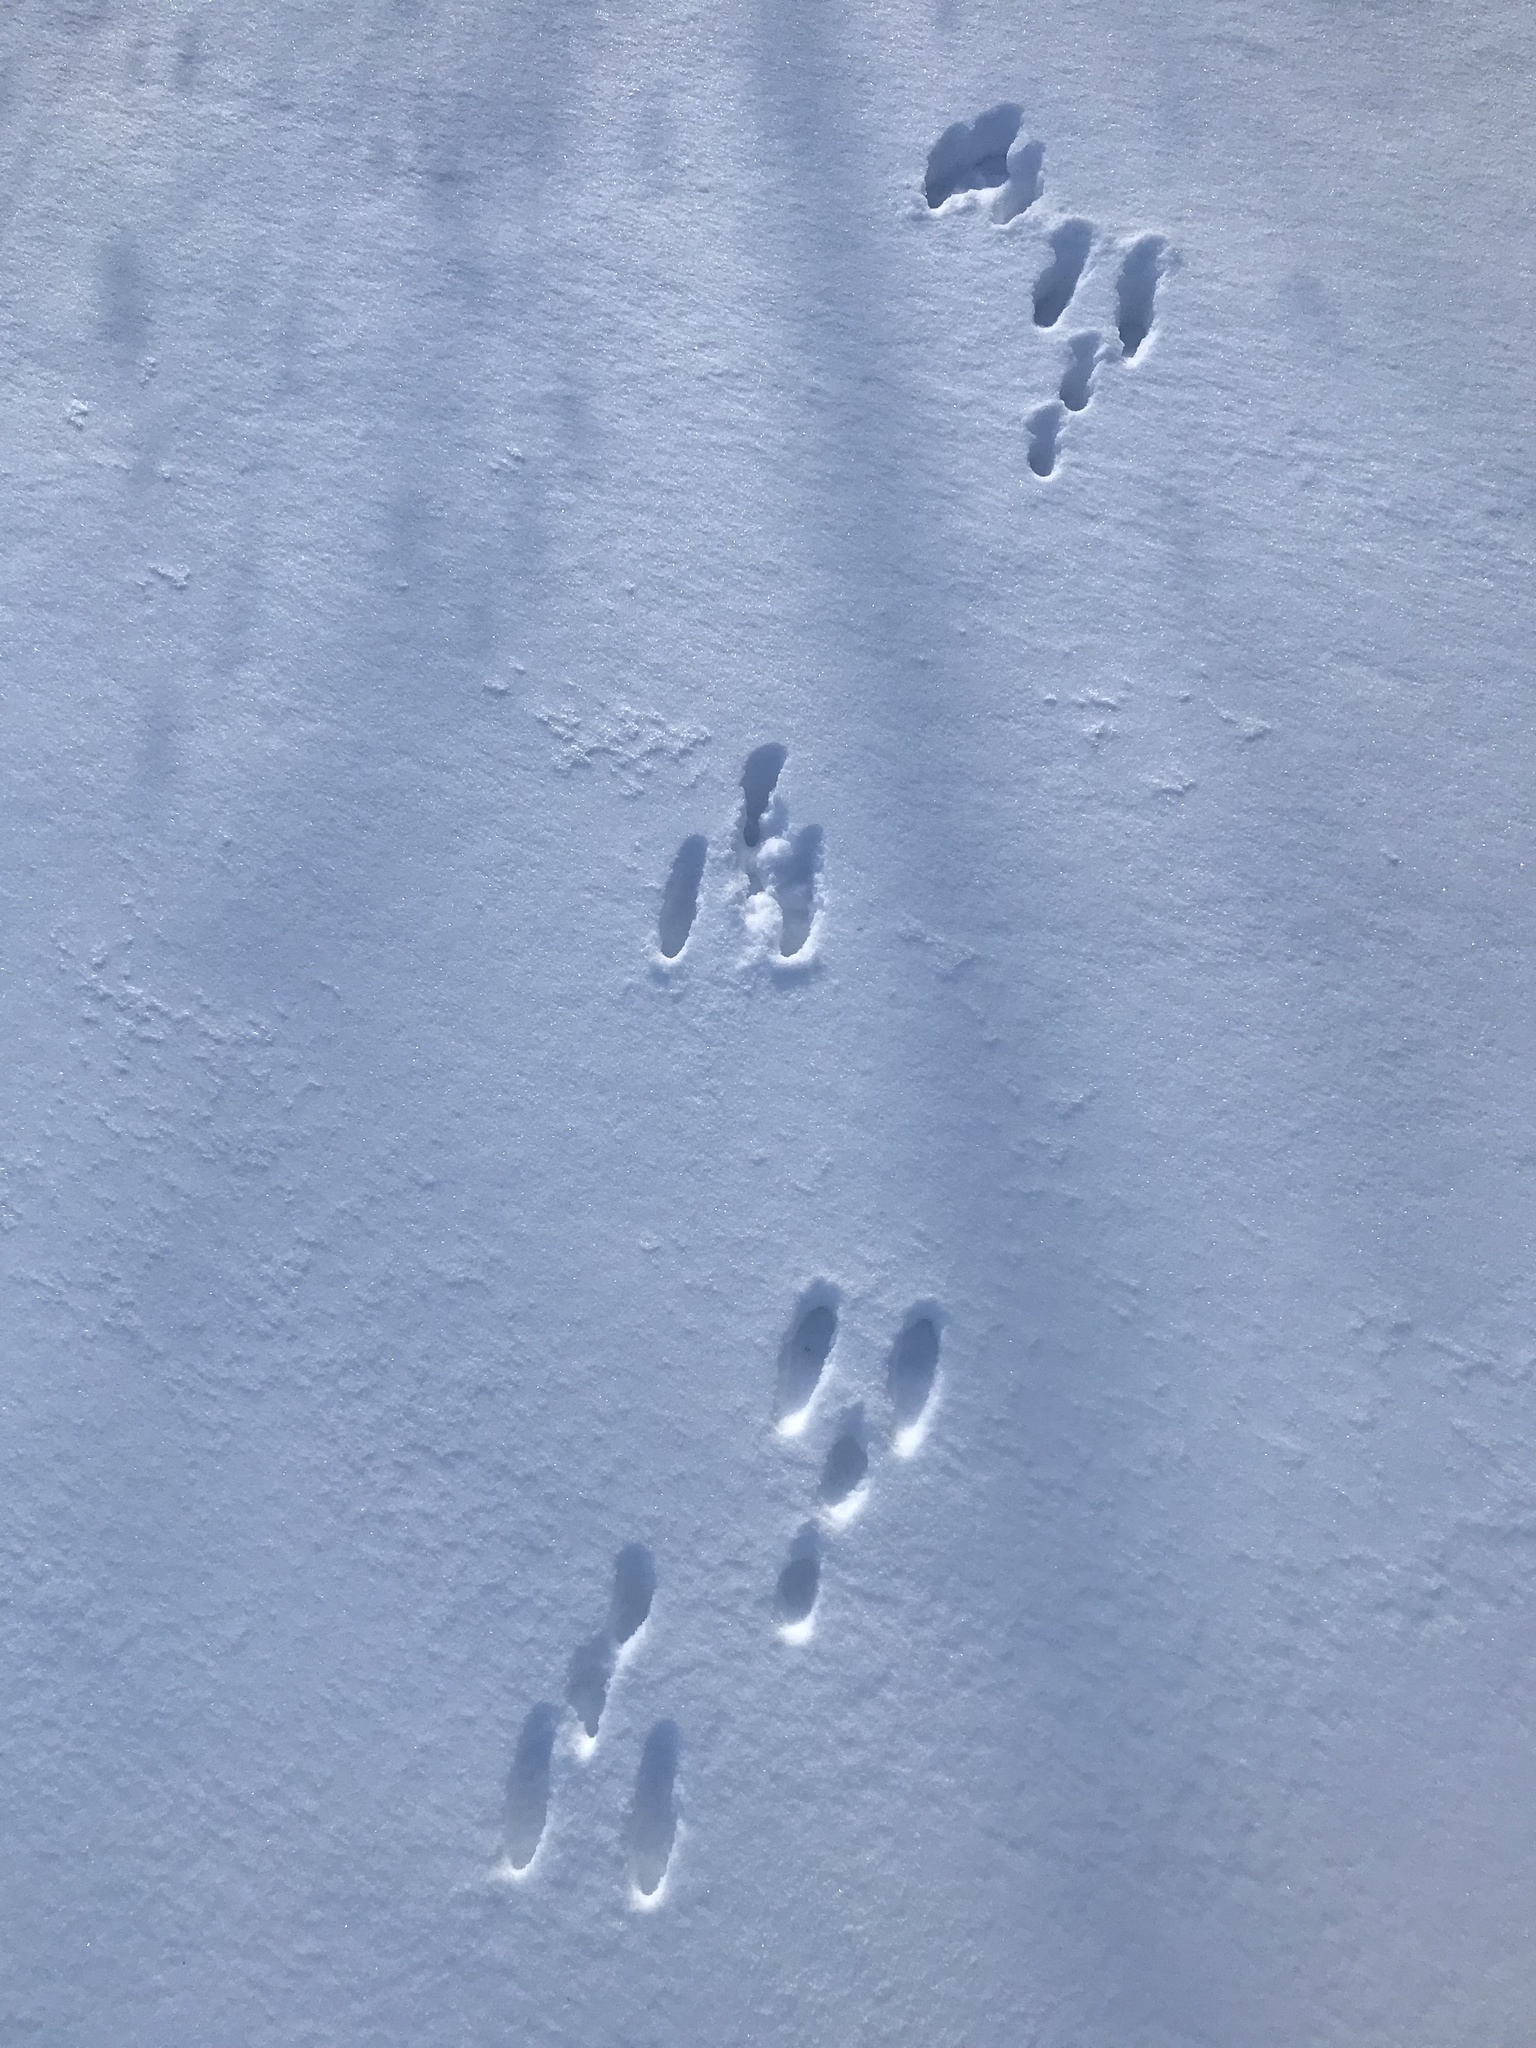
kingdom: Animalia
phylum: Chordata
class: Mammalia
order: Lagomorpha
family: Leporidae
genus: Sylvilagus
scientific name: Sylvilagus floridanus
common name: Eastern cottontail
